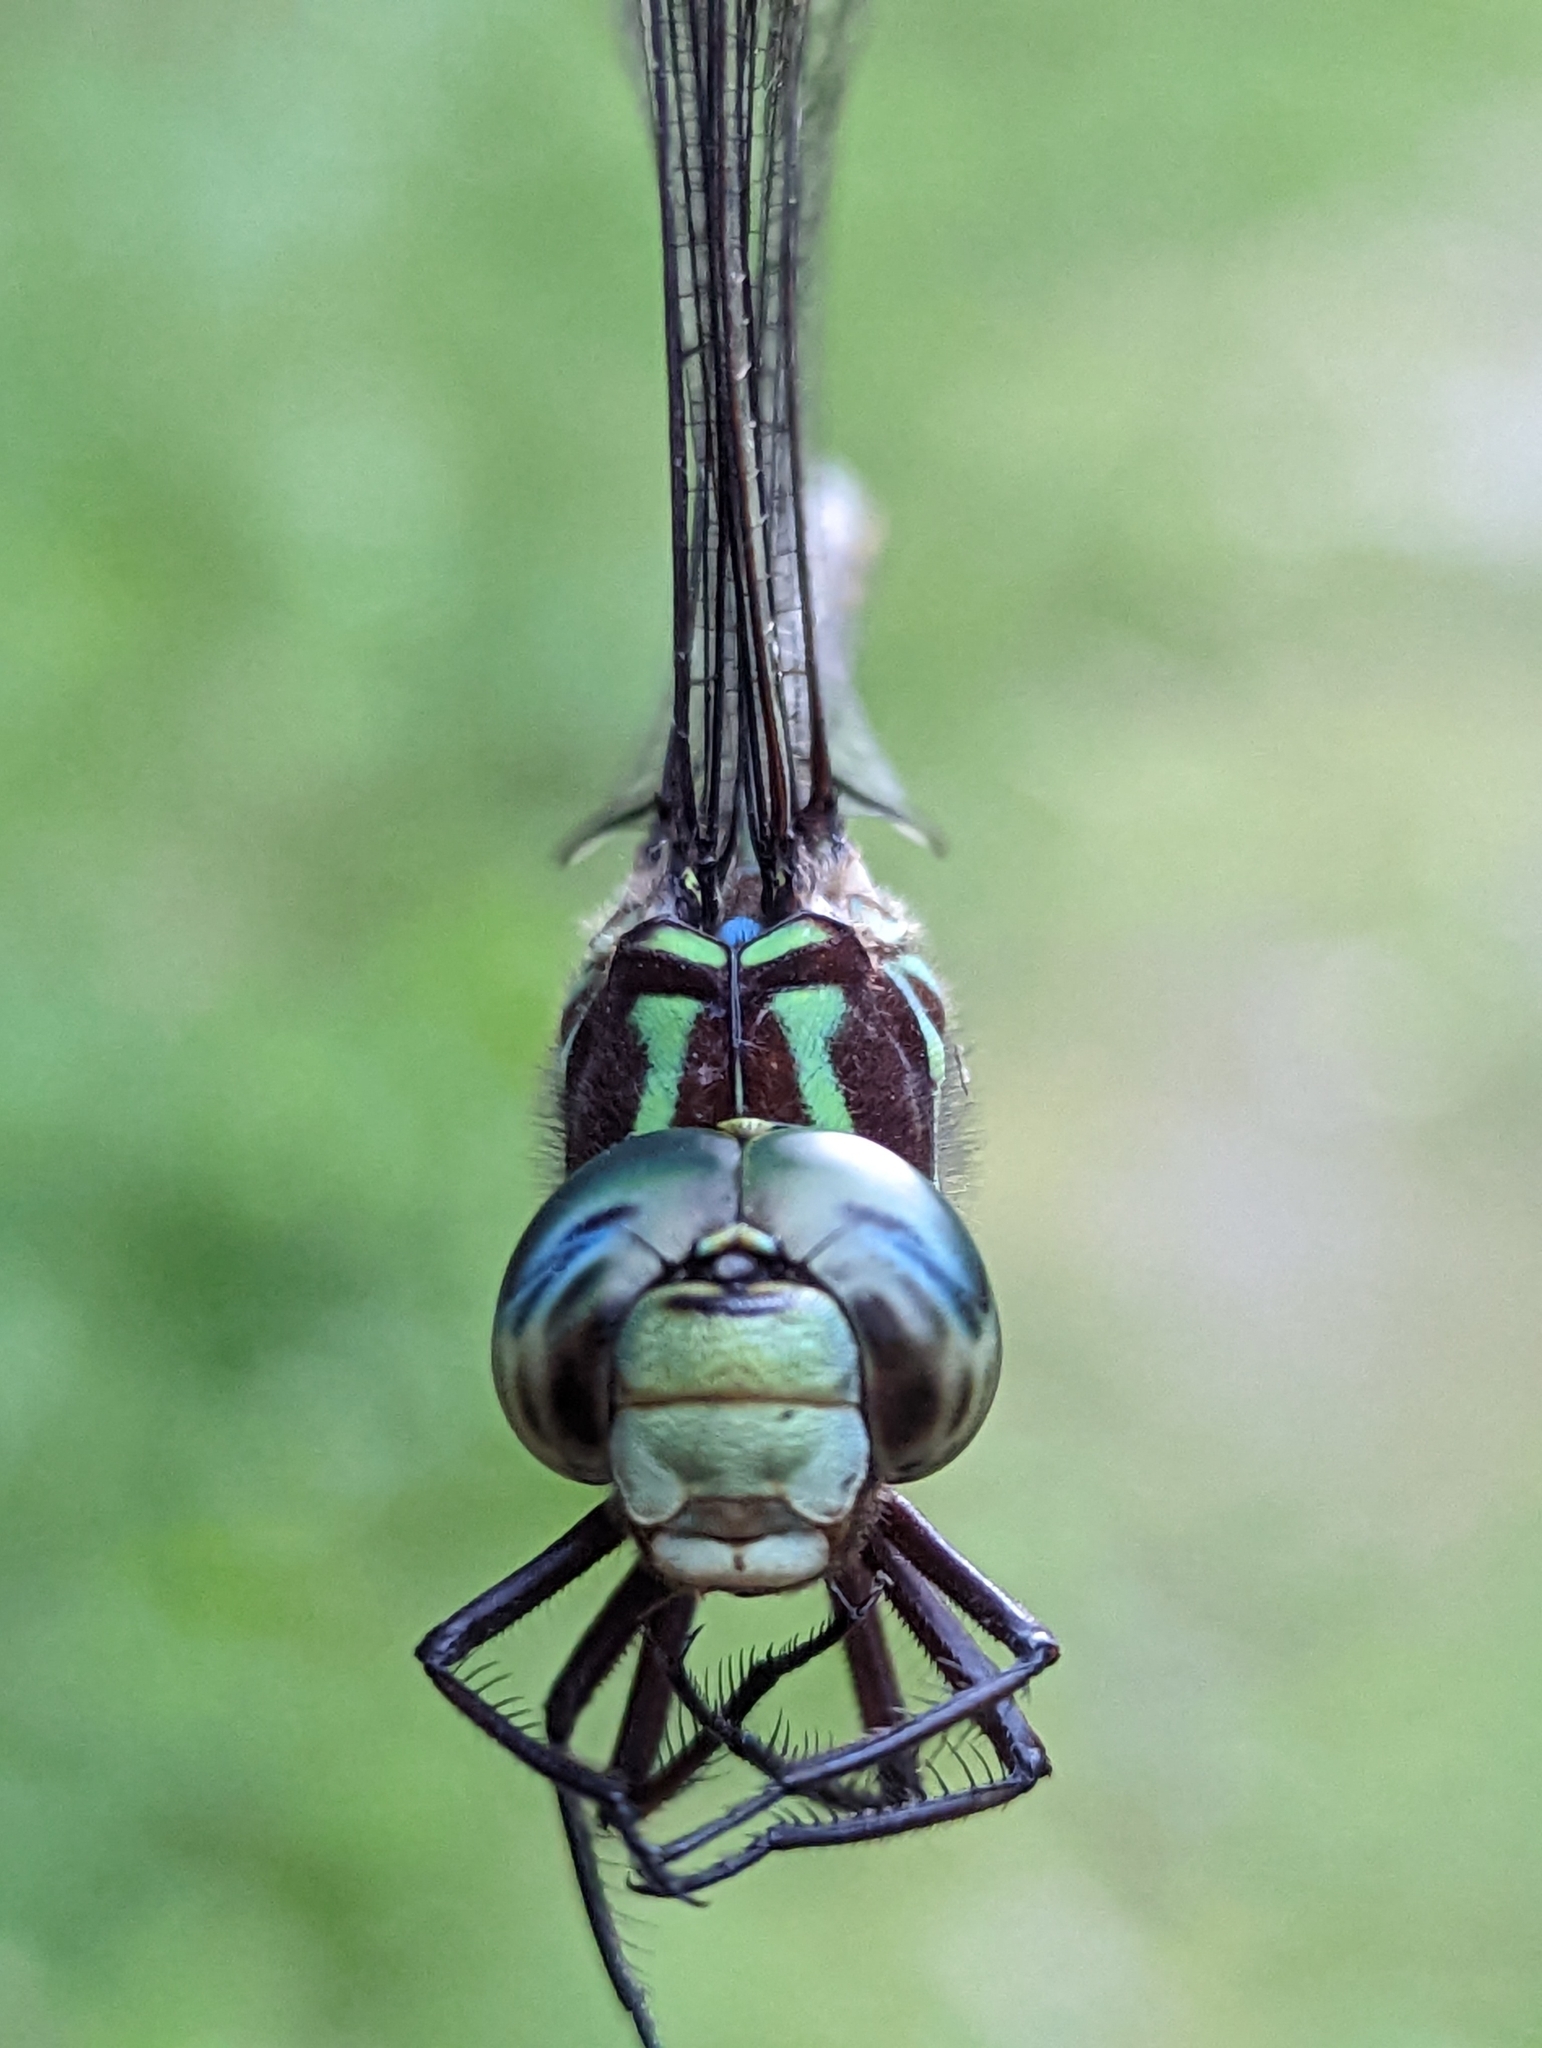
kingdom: Animalia
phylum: Arthropoda
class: Insecta
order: Odonata
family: Aeshnidae
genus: Aeshna
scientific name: Aeshna umbrosa
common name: Shadow darner
